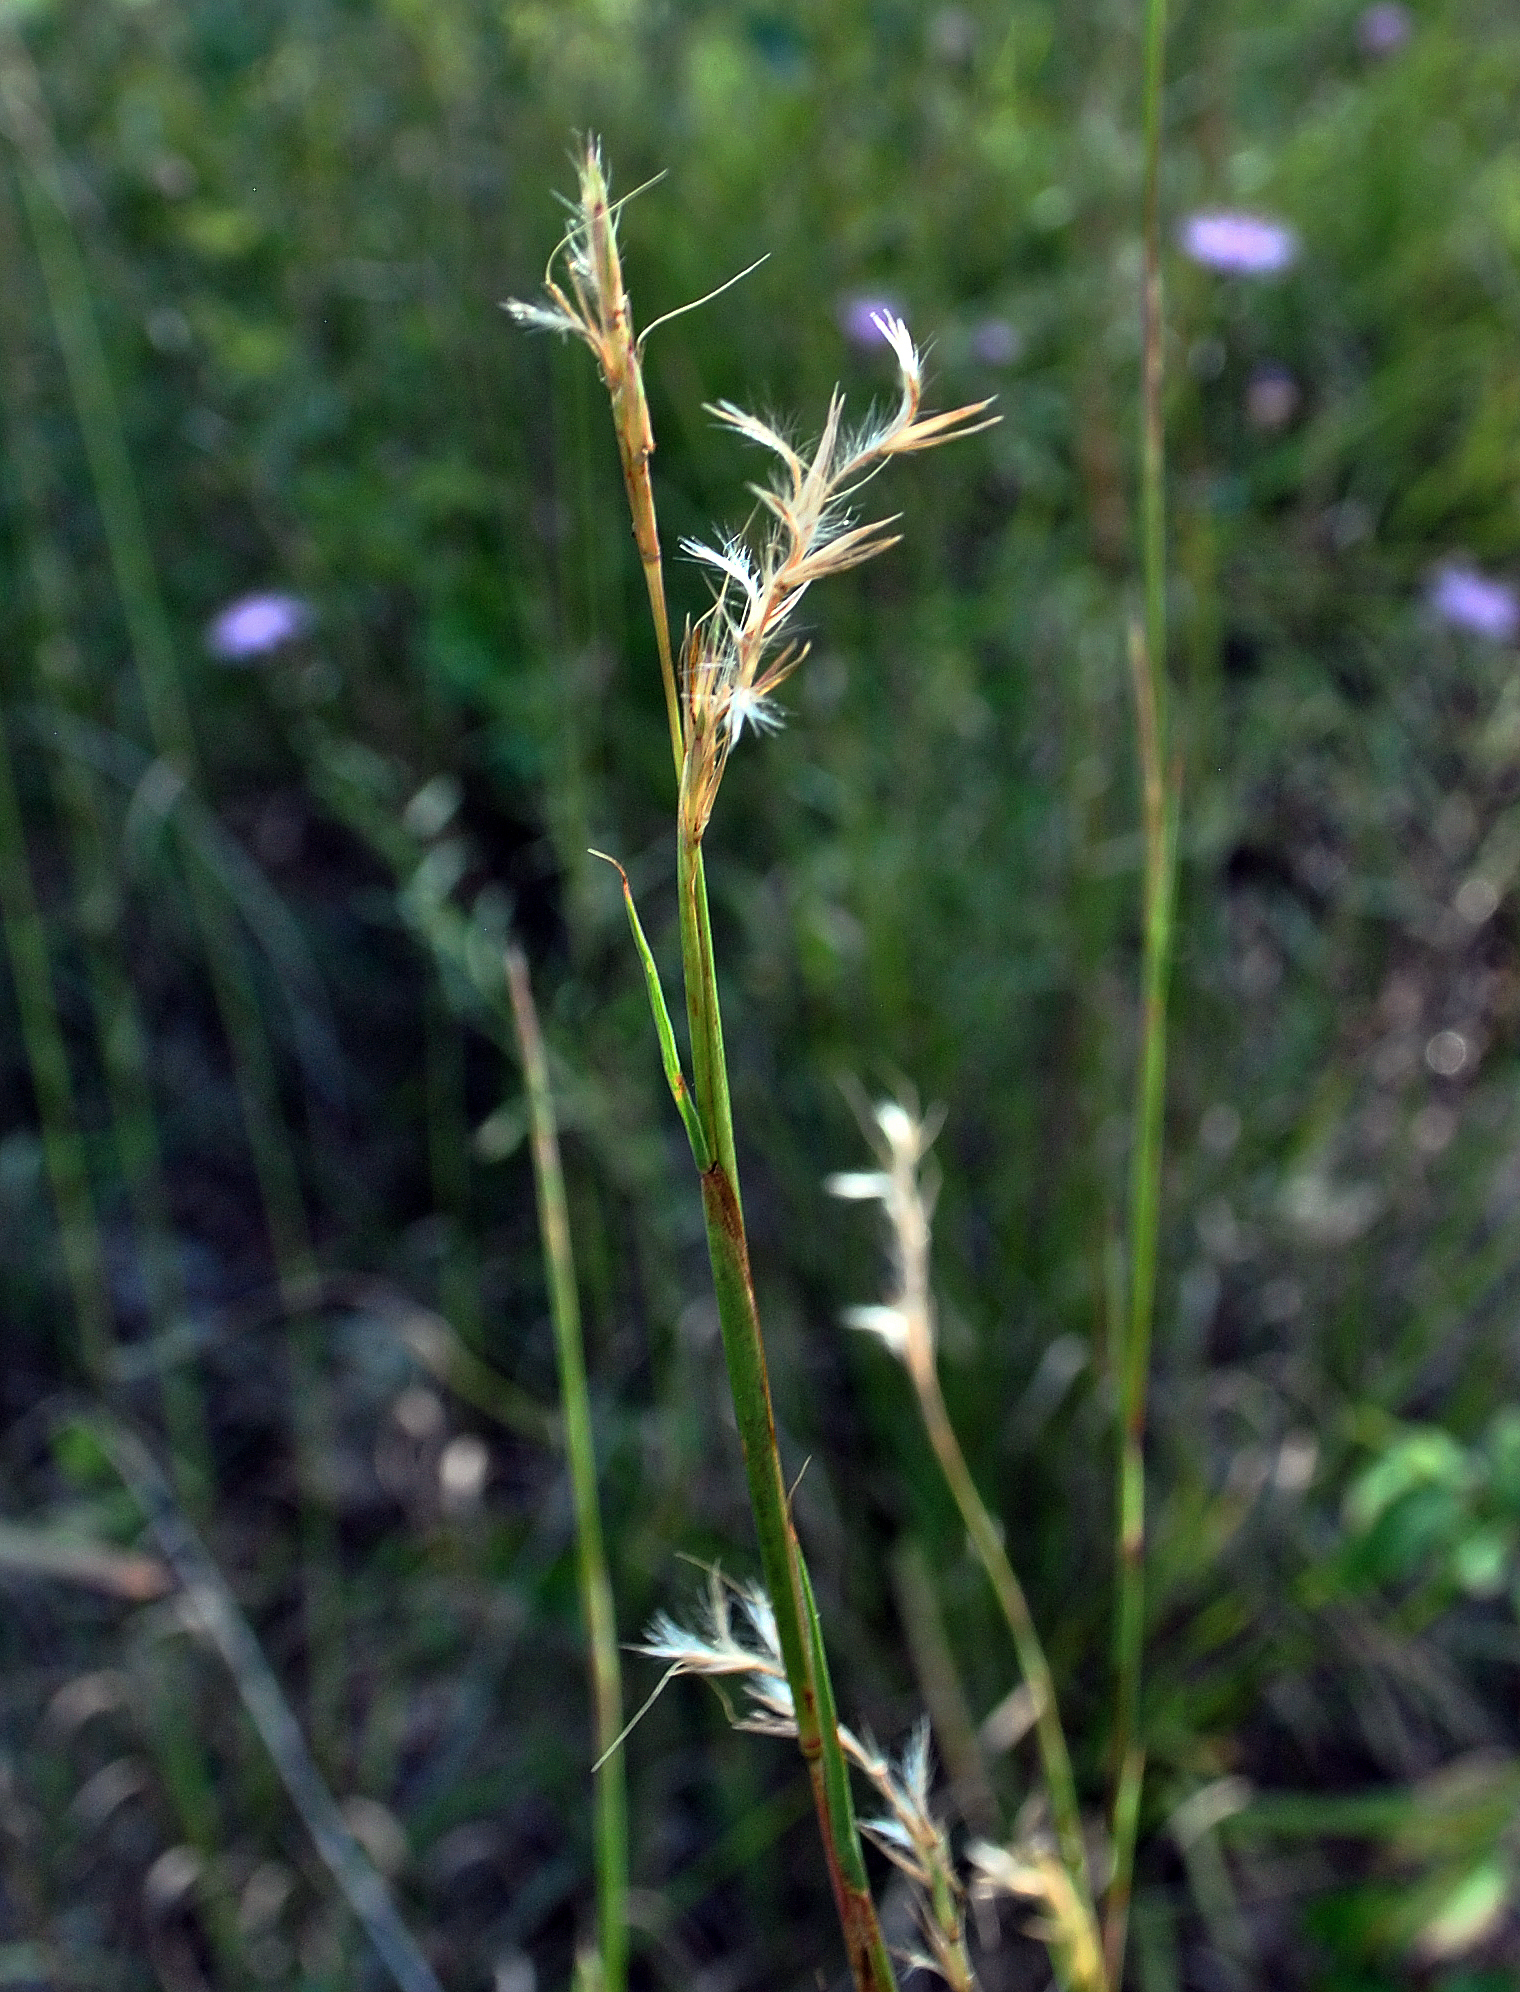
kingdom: Plantae
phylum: Tracheophyta
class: Liliopsida
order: Poales
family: Poaceae
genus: Schizachyrium
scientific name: Schizachyrium scoparium
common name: Little bluestem
